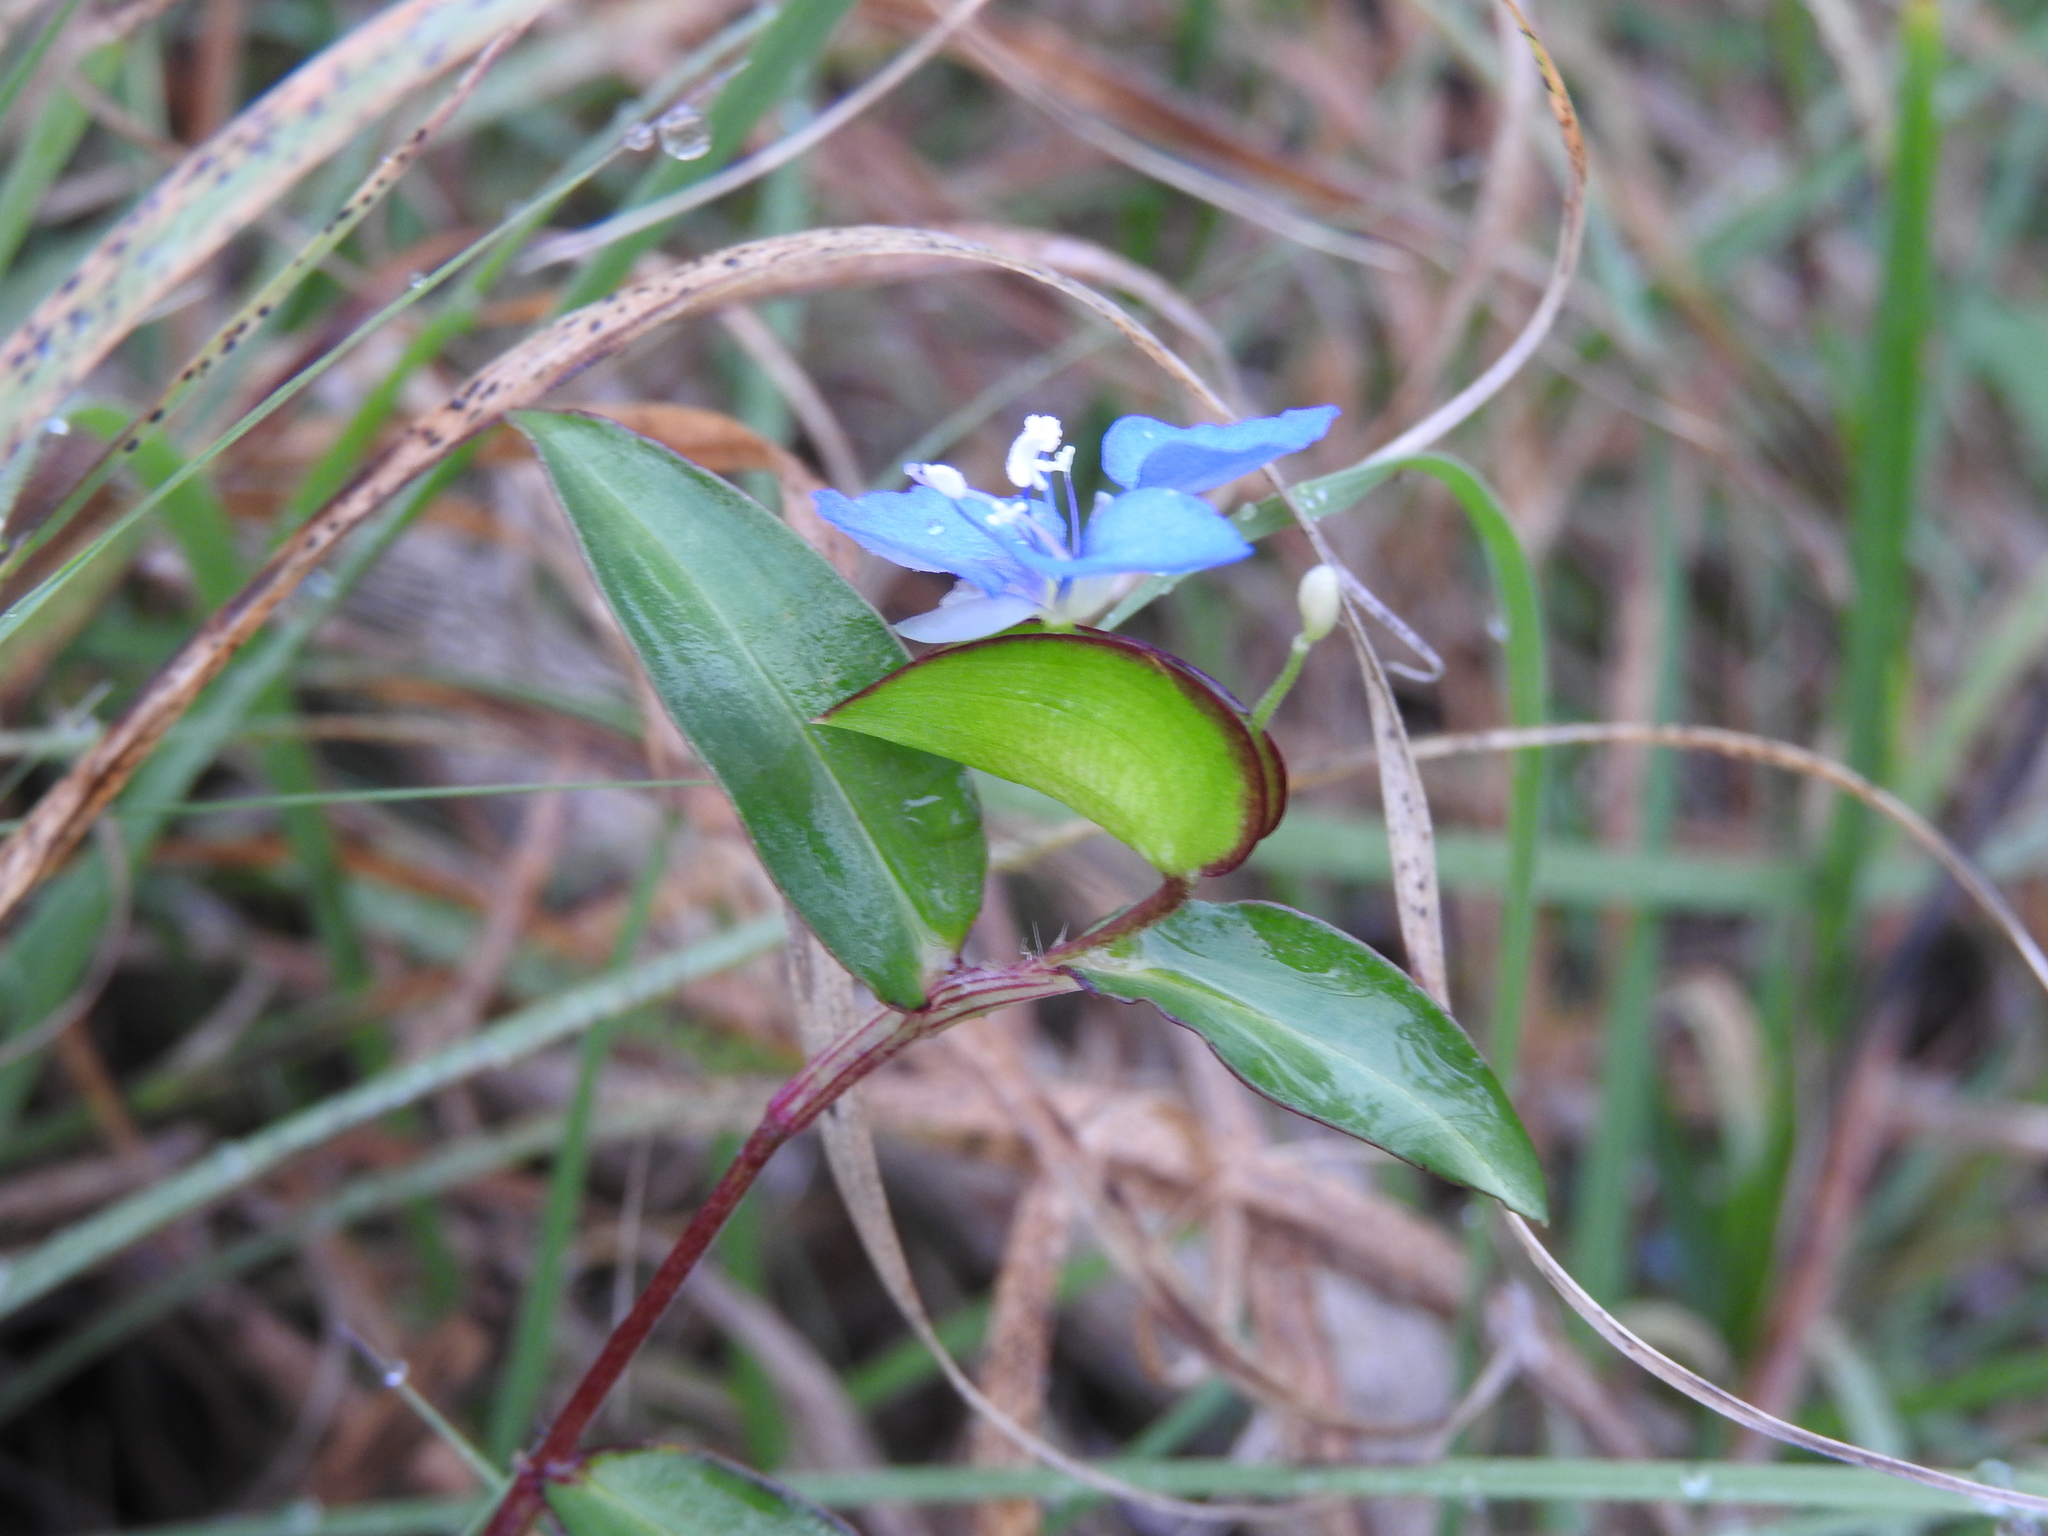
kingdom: Plantae
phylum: Tracheophyta
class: Liliopsida
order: Commelinales
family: Commelinaceae
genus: Commelina
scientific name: Commelina diffusa
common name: Climbing dayflower
